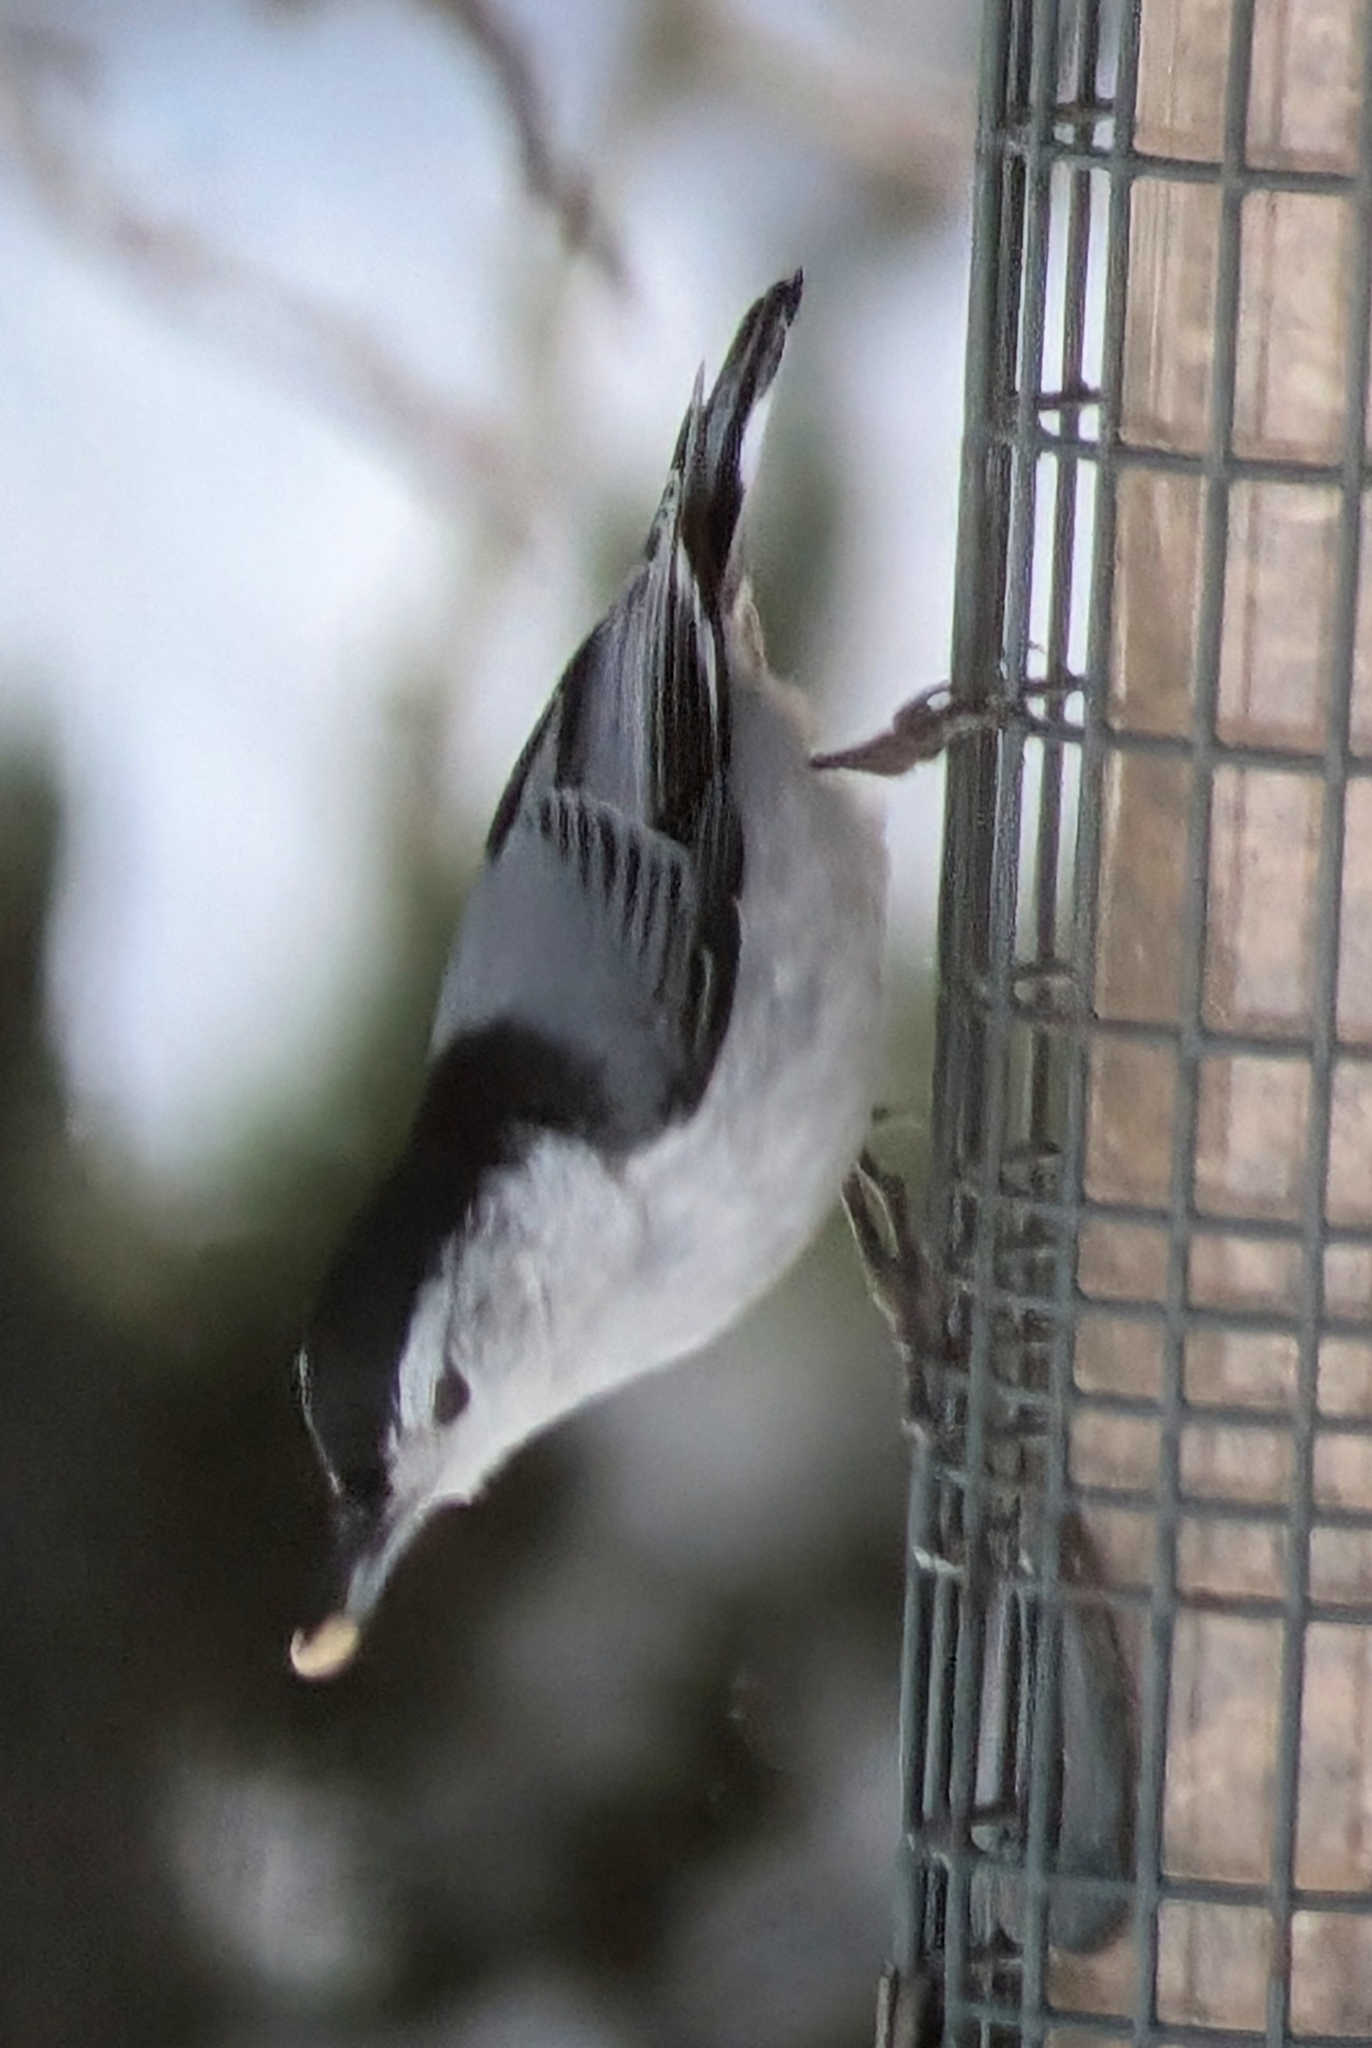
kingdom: Animalia
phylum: Chordata
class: Aves
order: Passeriformes
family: Sittidae
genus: Sitta
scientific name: Sitta carolinensis
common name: White-breasted nuthatch
